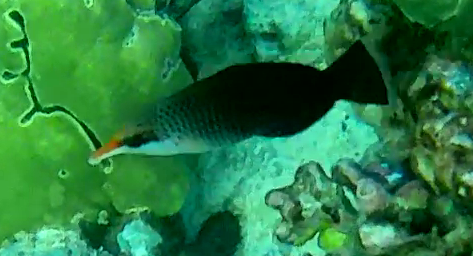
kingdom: Animalia
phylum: Chordata
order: Perciformes
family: Labridae
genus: Gomphosus
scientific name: Gomphosus varius
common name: Bird wrasse
